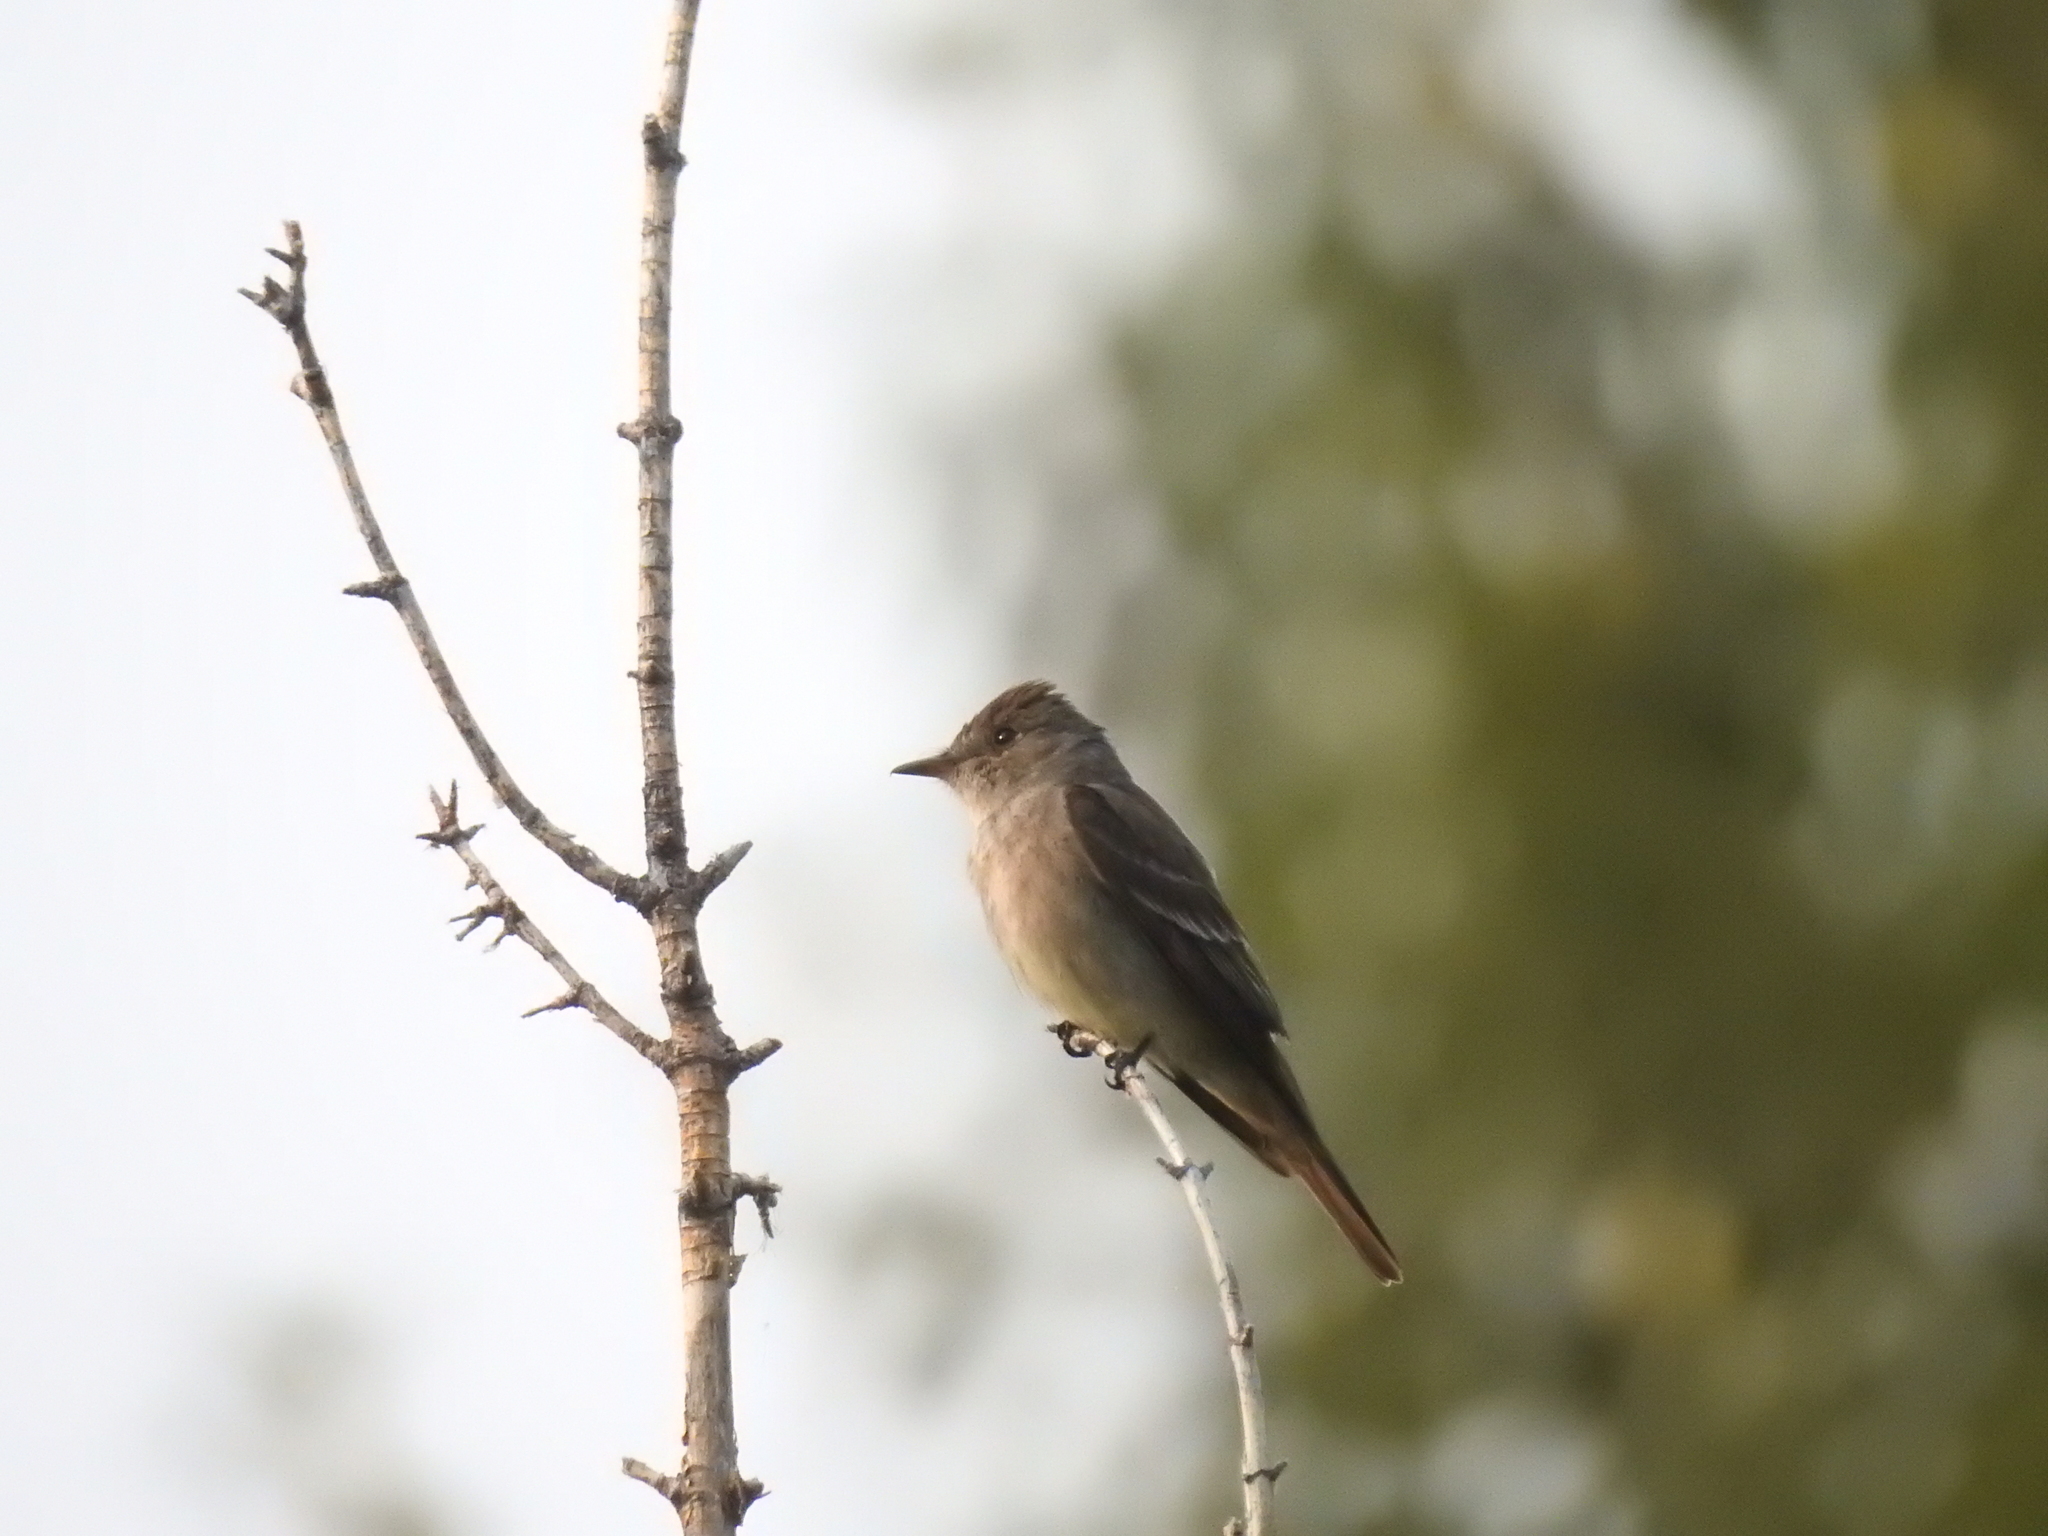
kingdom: Animalia
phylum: Chordata
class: Aves
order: Passeriformes
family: Tyrannidae
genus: Contopus
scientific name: Contopus sordidulus
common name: Western wood-pewee
